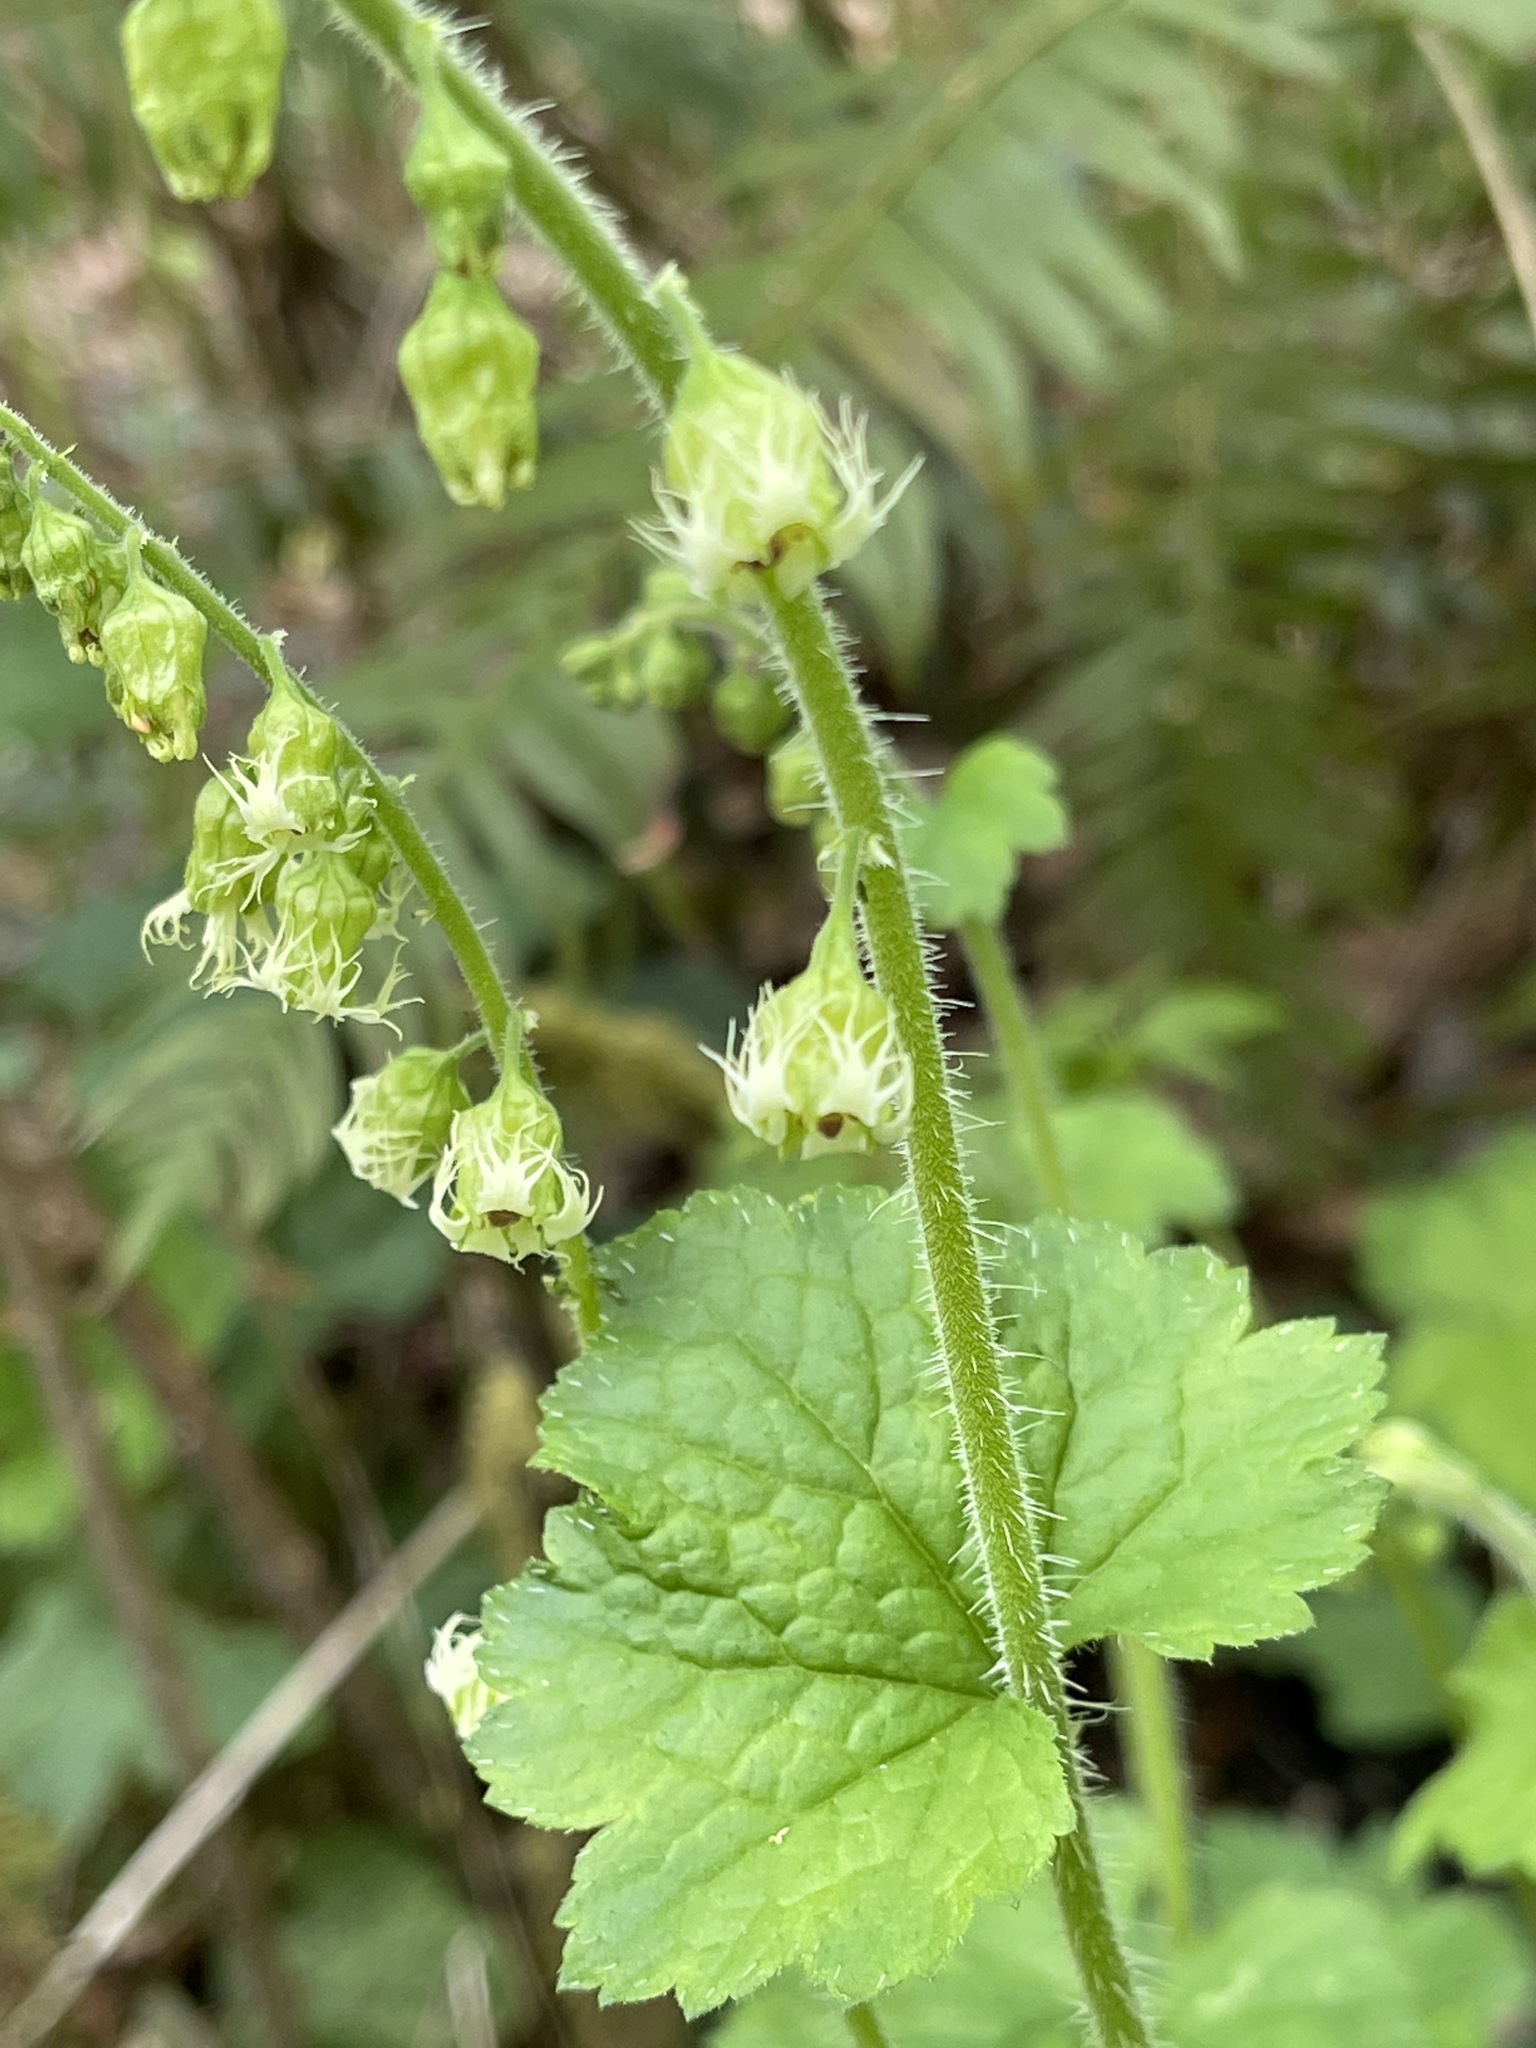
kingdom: Plantae
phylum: Tracheophyta
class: Magnoliopsida
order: Saxifragales
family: Saxifragaceae
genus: Tellima
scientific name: Tellima grandiflora
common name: Fringecups
